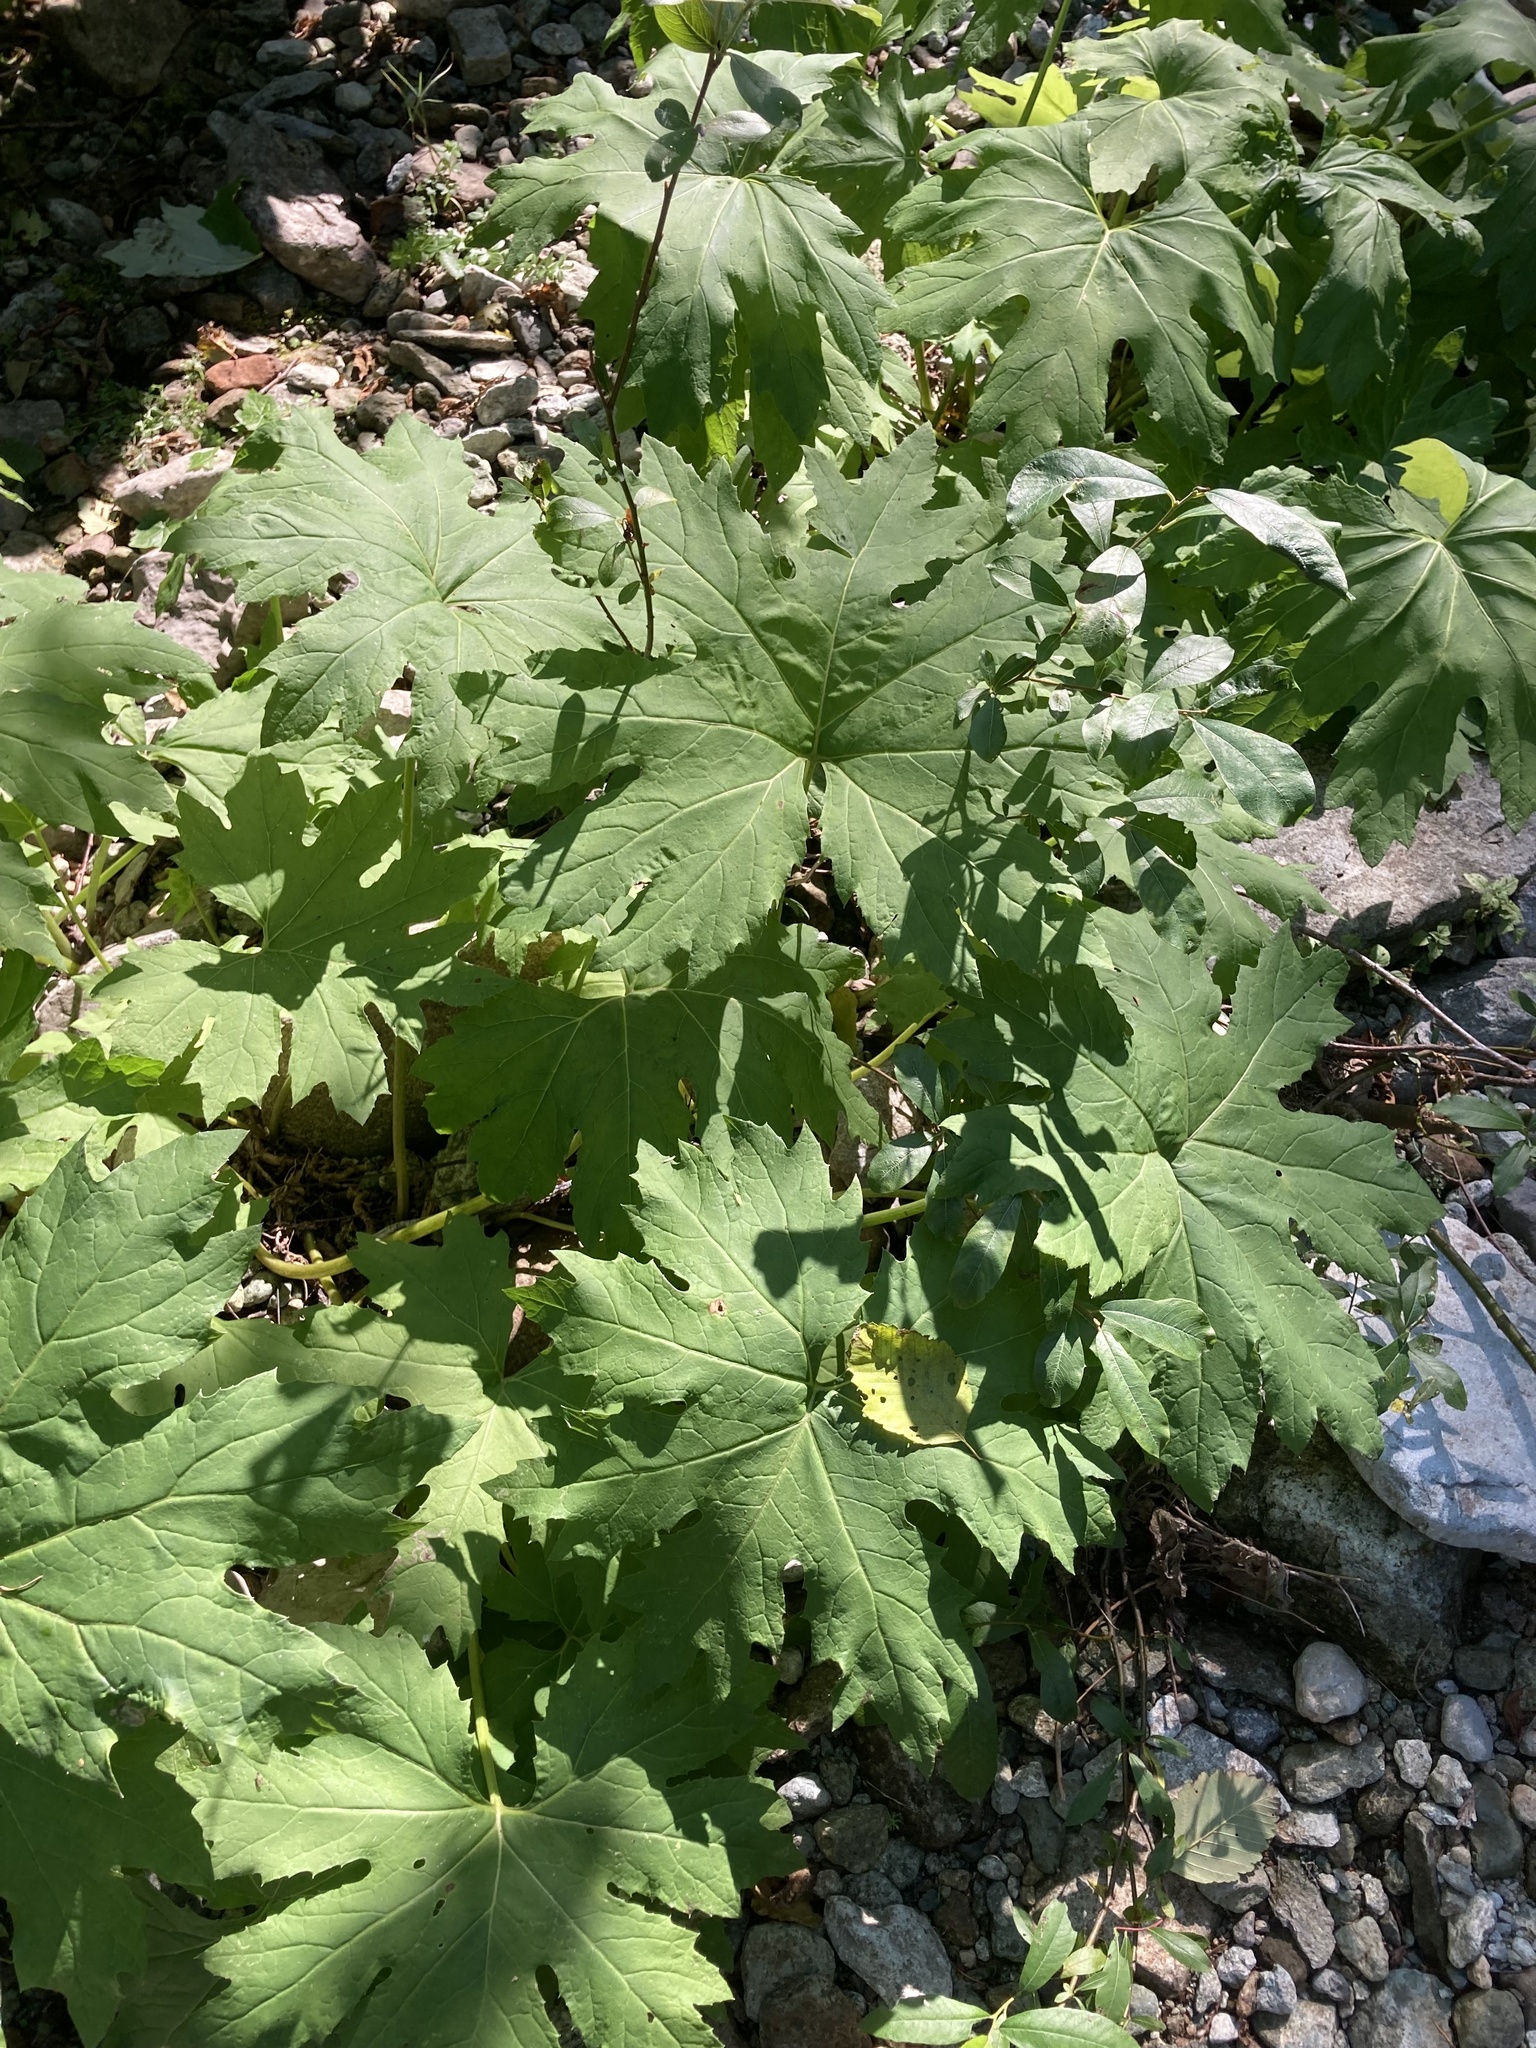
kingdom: Plantae
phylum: Tracheophyta
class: Magnoliopsida
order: Asterales
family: Asteraceae
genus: Petasites
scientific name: Petasites frigidus
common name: Arctic butterbur
